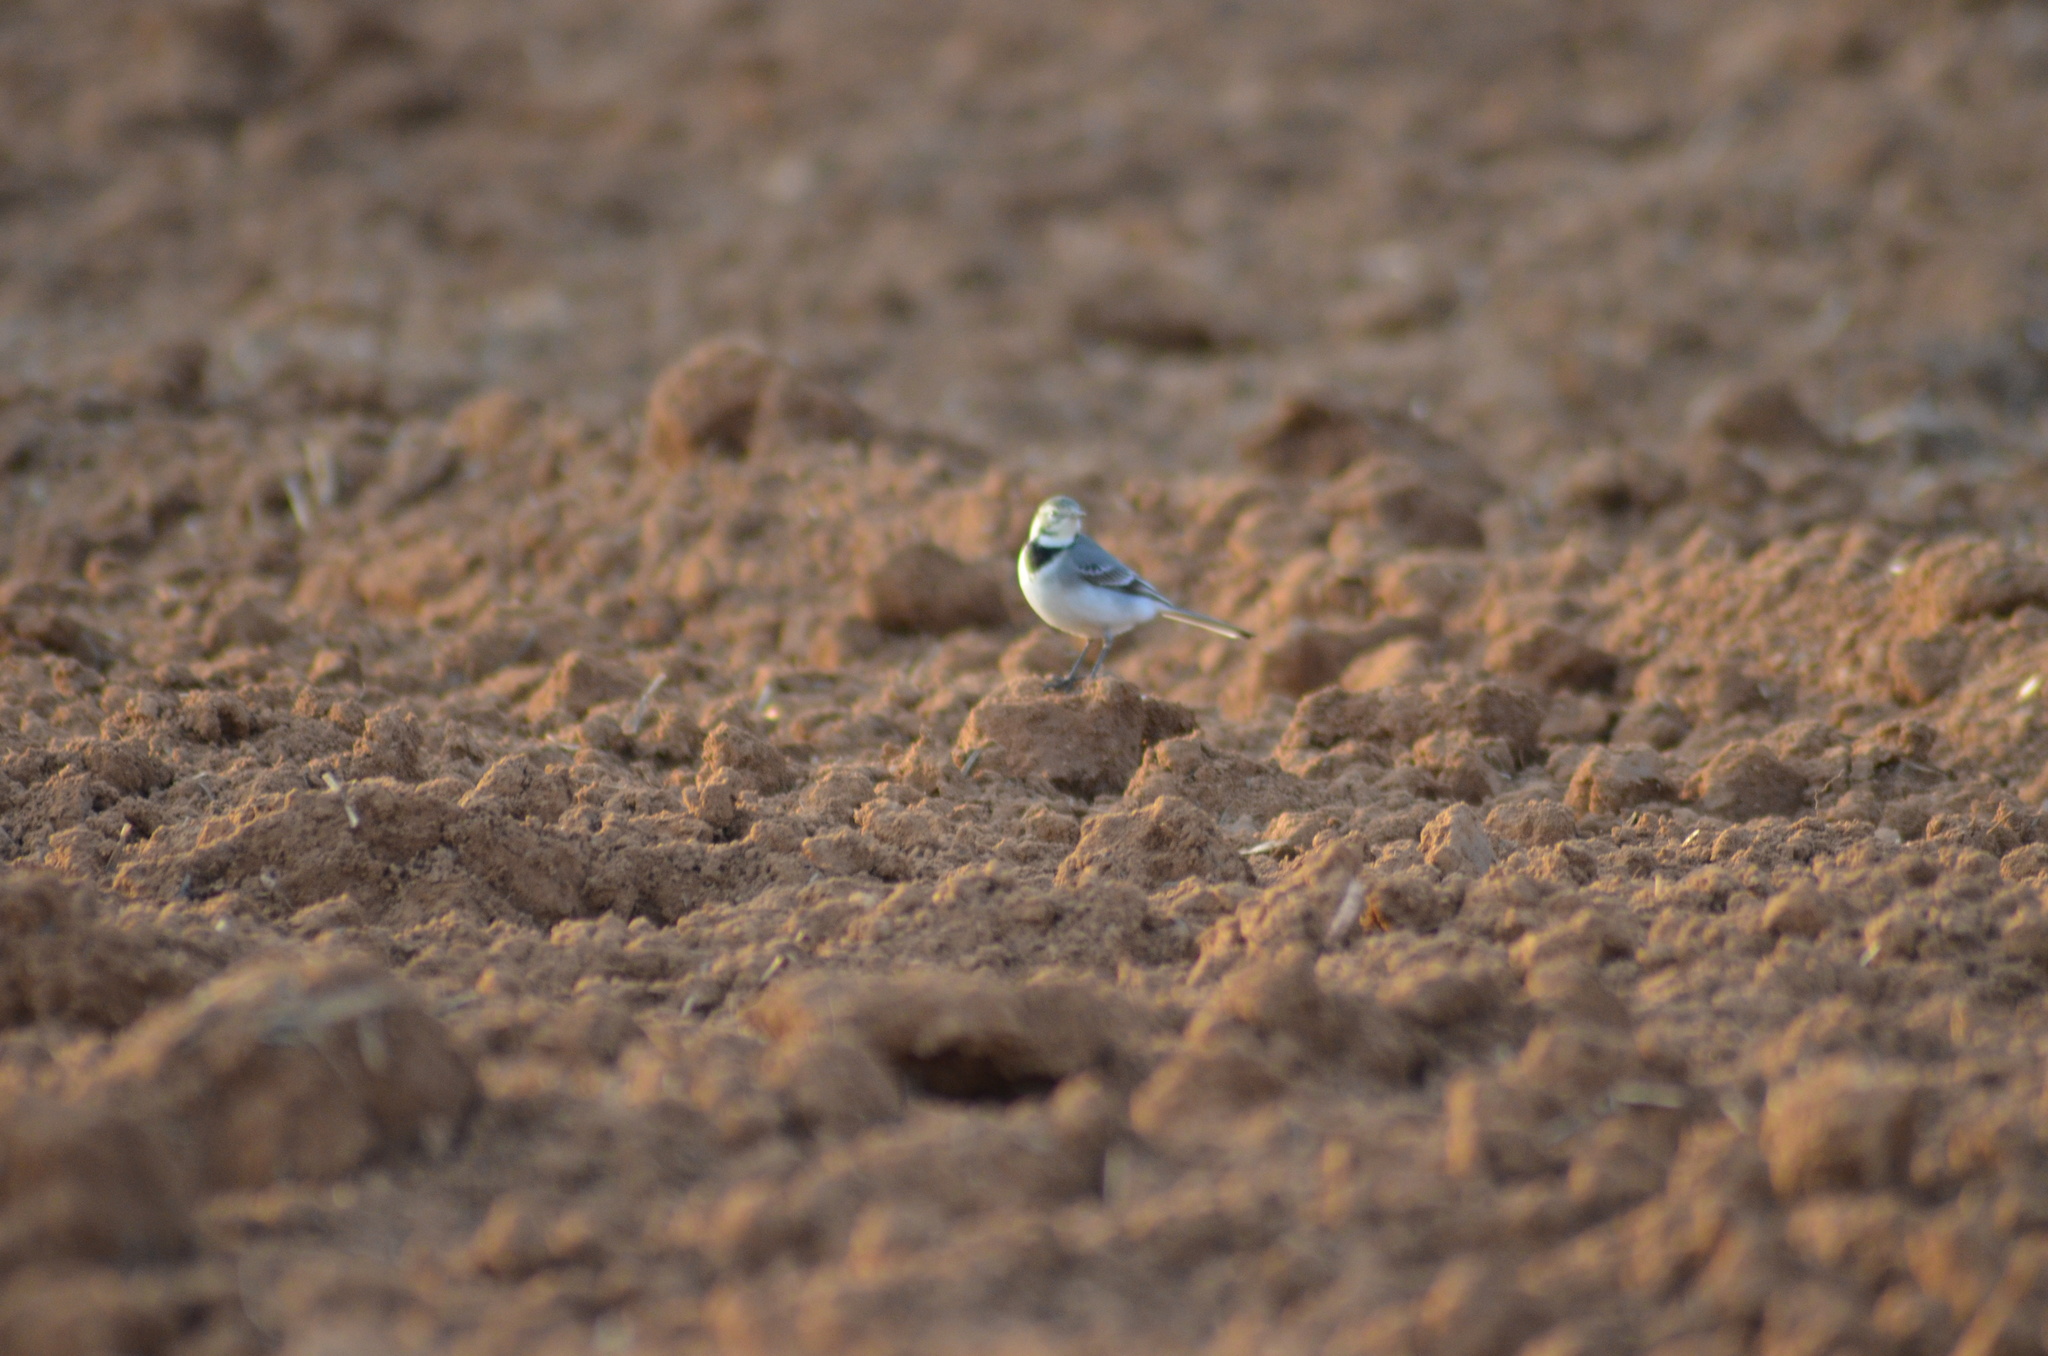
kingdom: Animalia
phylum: Chordata
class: Aves
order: Passeriformes
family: Motacillidae
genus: Motacilla
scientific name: Motacilla alba
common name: White wagtail
